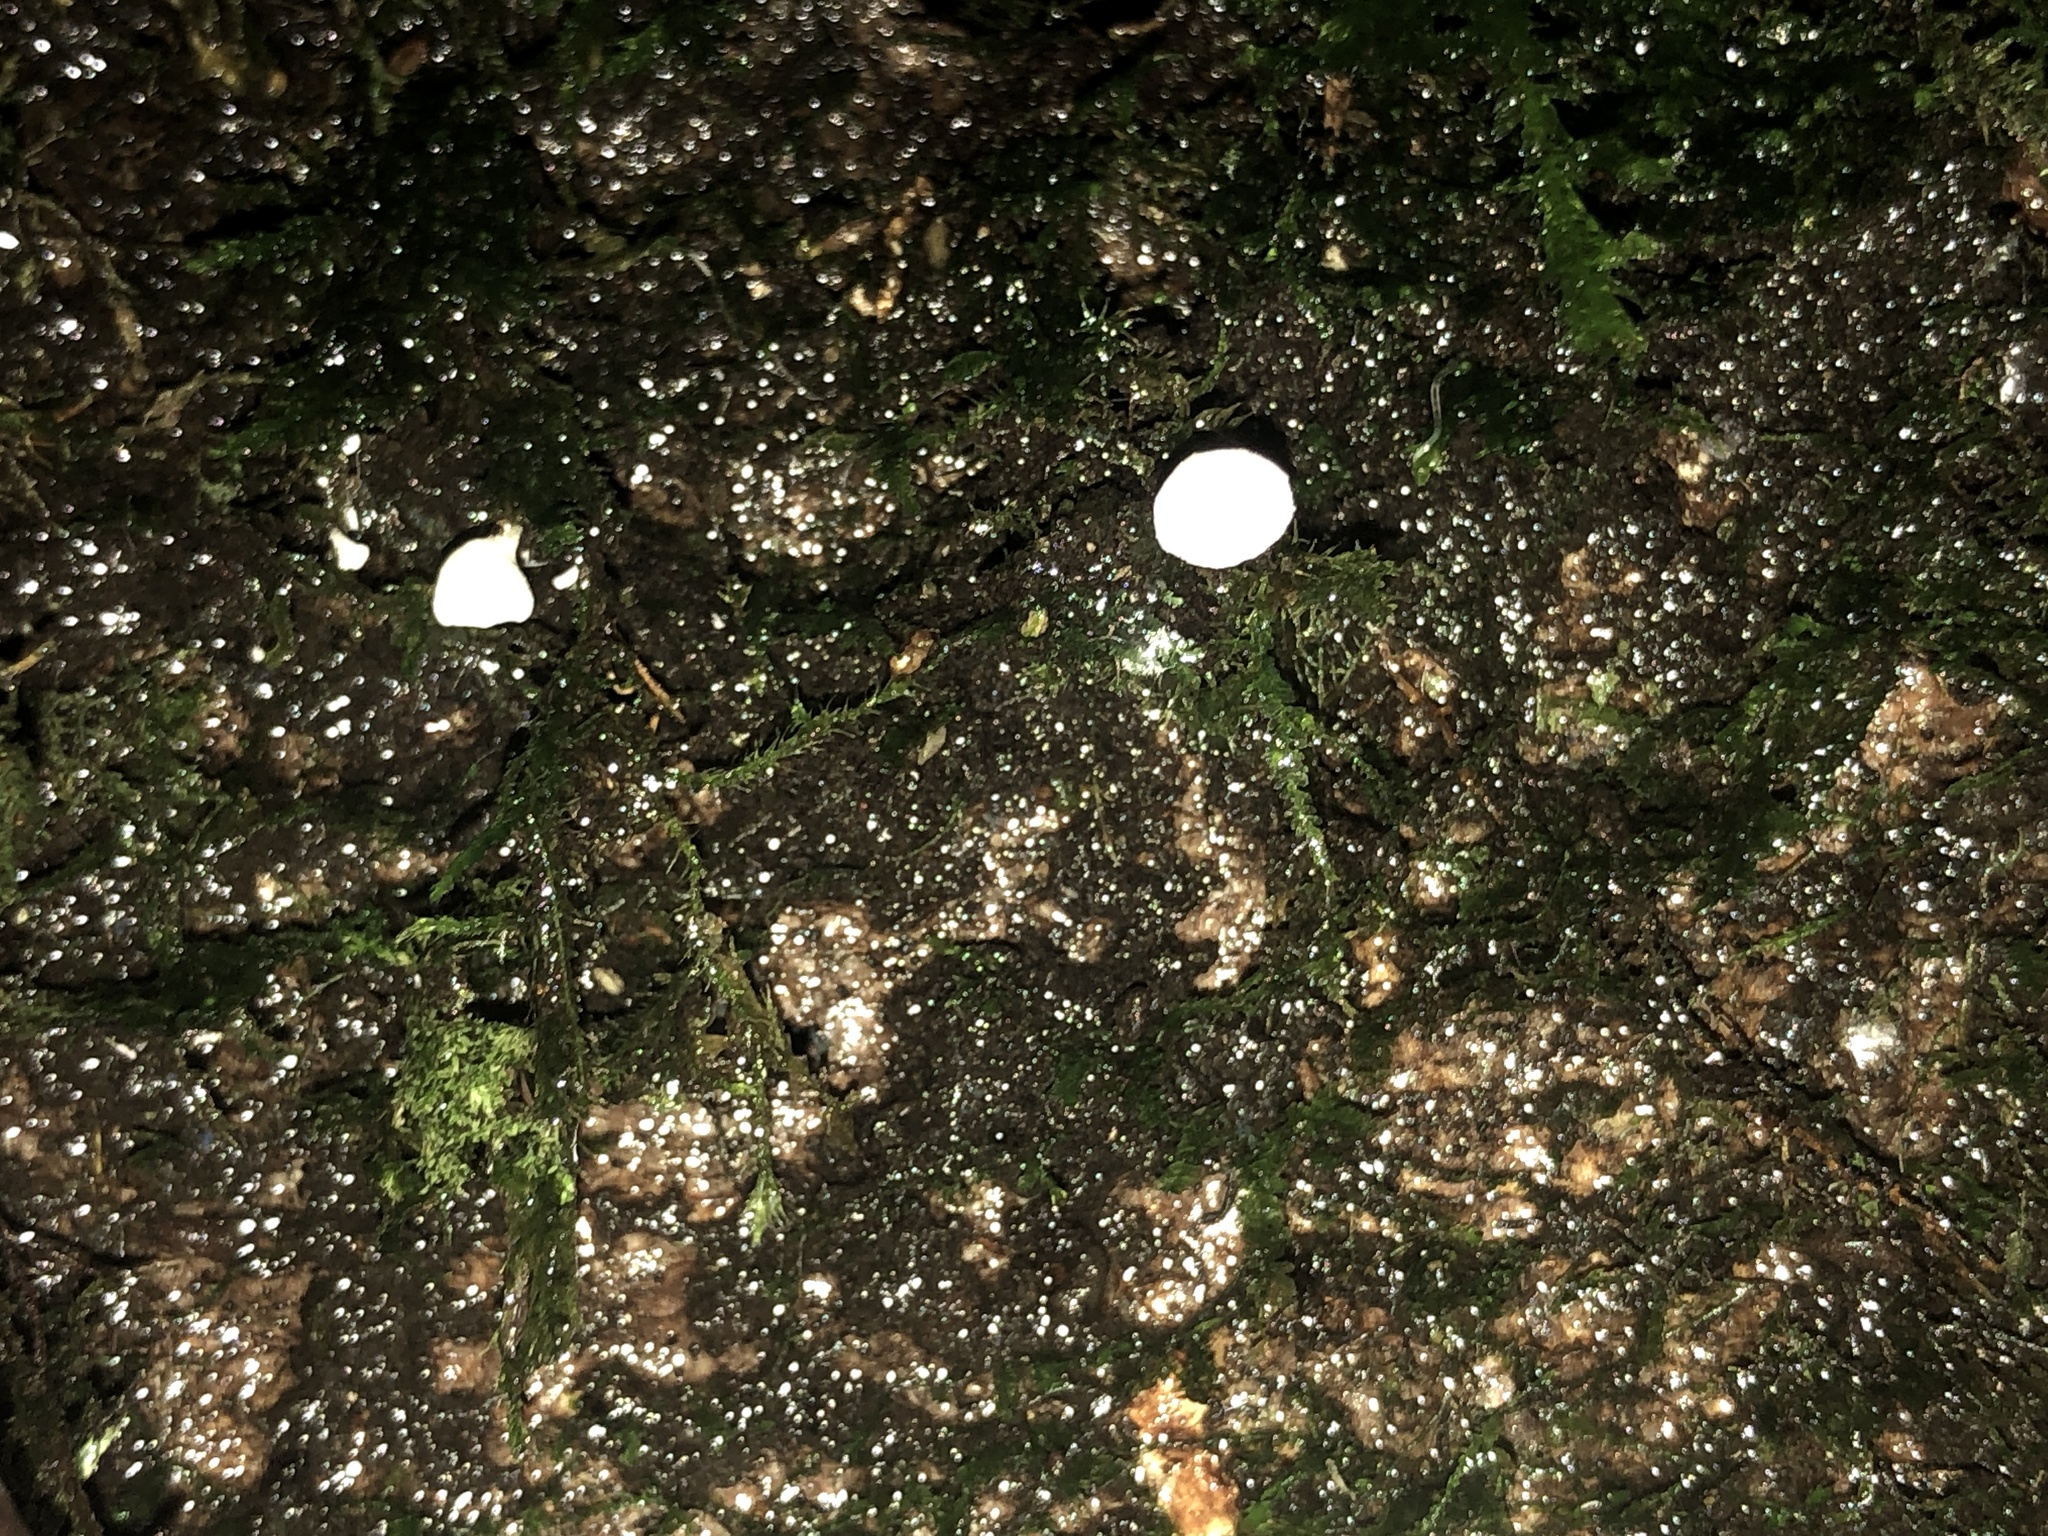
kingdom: Fungi
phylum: Basidiomycota
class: Agaricomycetes
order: Agaricales
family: Tricholomataceae
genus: Rimbachia
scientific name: Rimbachia bryophila
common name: Veined mossear
